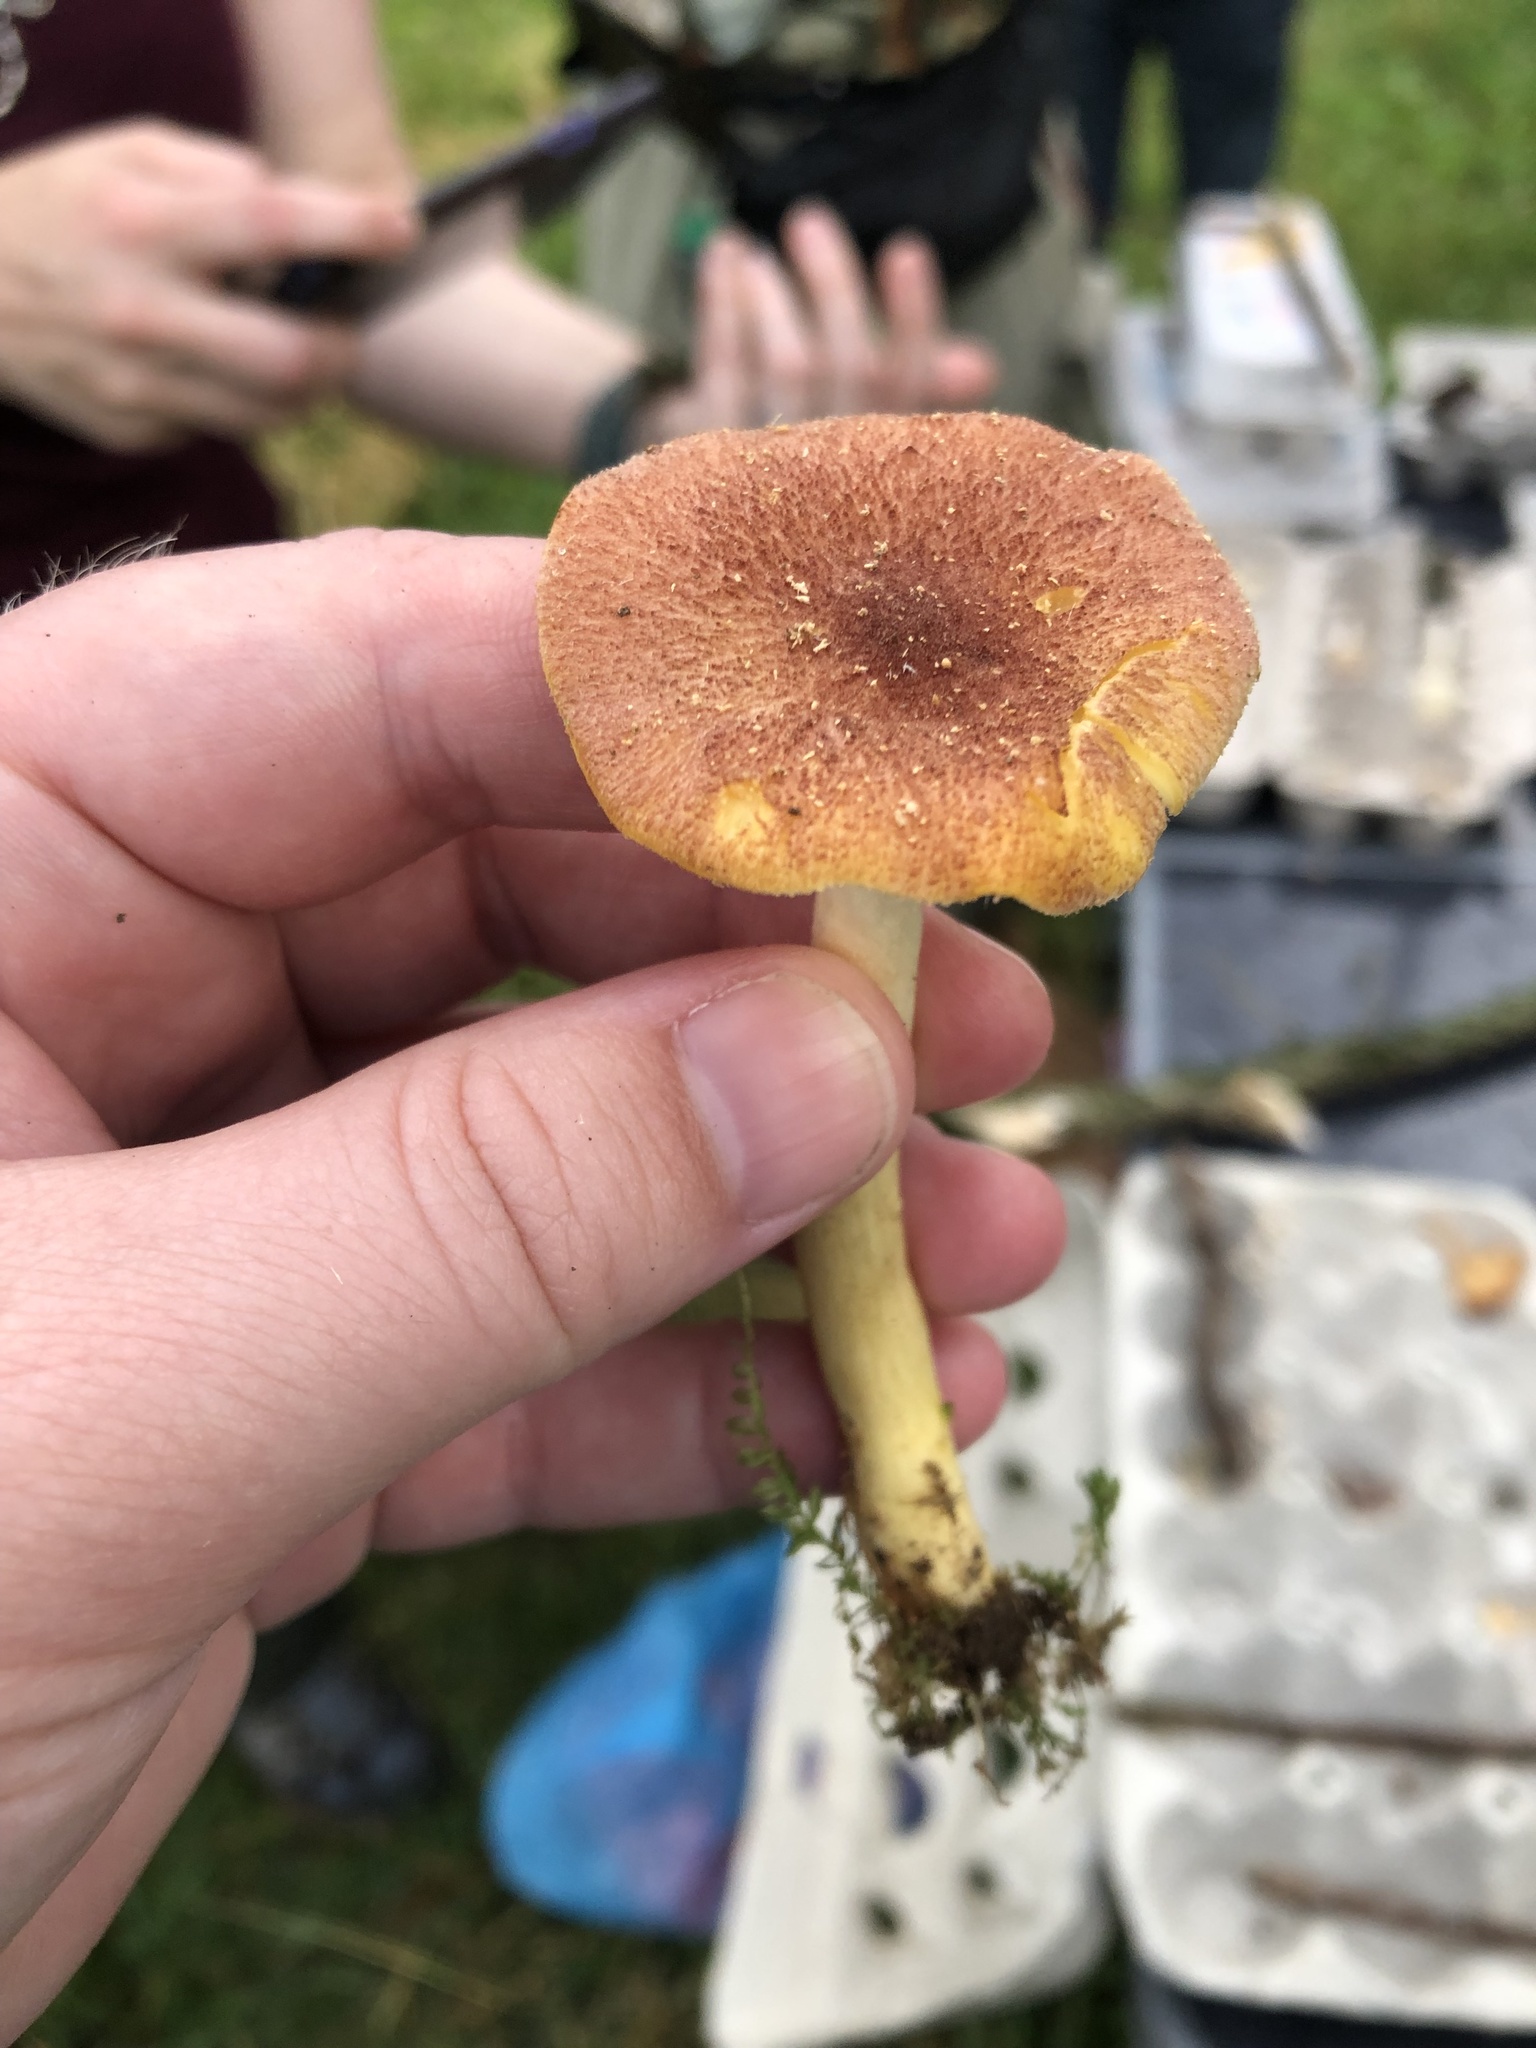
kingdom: Fungi
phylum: Basidiomycota
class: Agaricomycetes
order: Agaricales
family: Tricholomataceae
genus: Tricholomopsis
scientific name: Tricholomopsis flammula
